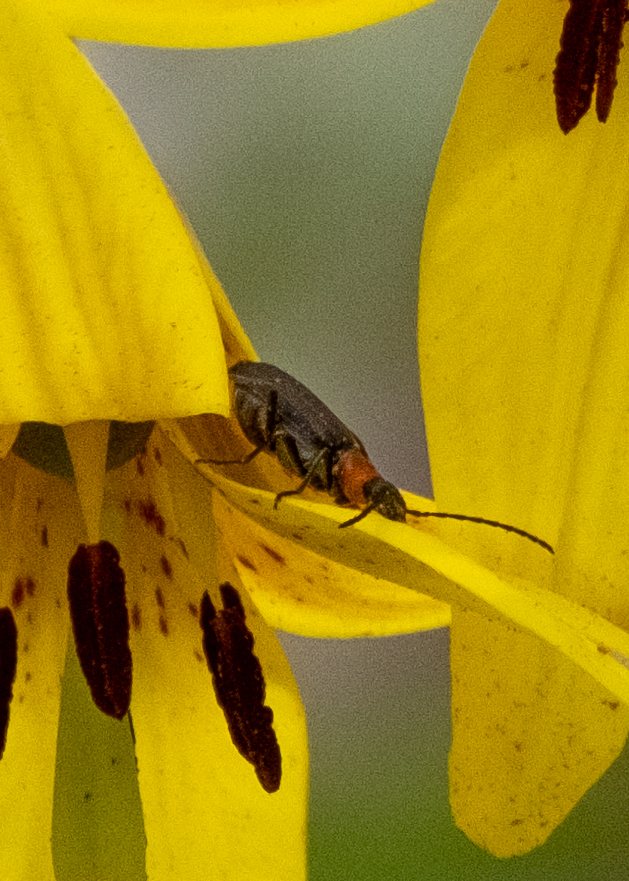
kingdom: Animalia
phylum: Arthropoda
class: Insecta
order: Coleoptera
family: Oedemeridae
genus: Ischnomera
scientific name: Ischnomera
